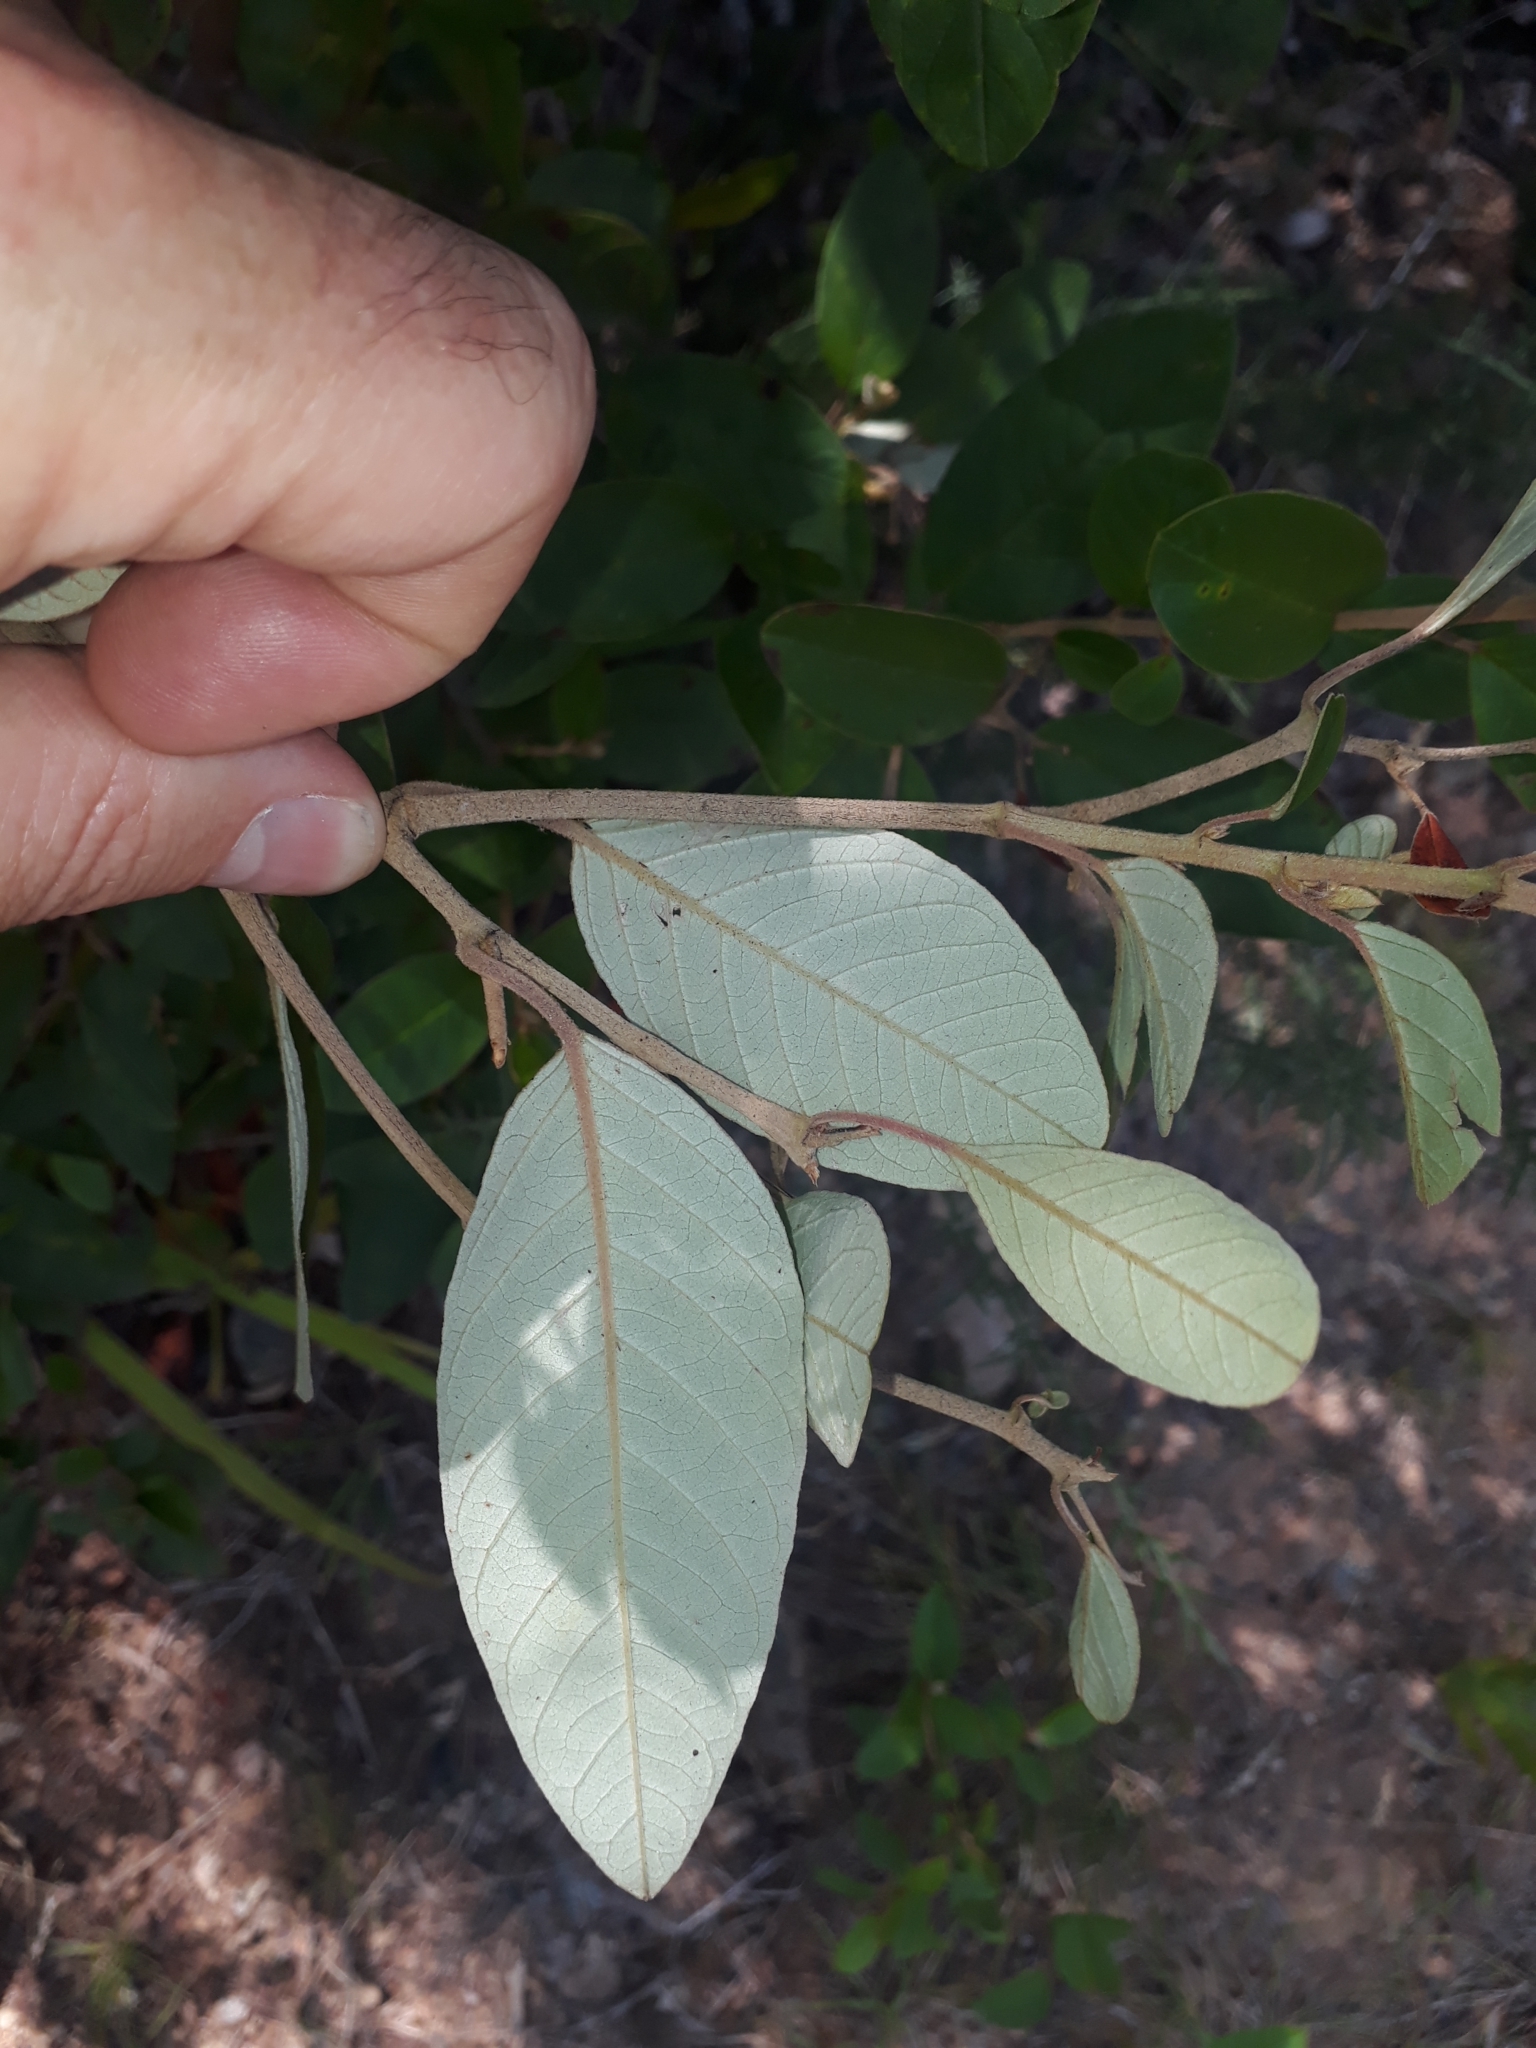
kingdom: Plantae
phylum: Tracheophyta
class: Magnoliopsida
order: Rosales
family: Rhamnaceae
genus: Pomaderris
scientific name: Pomaderris kumeraho
